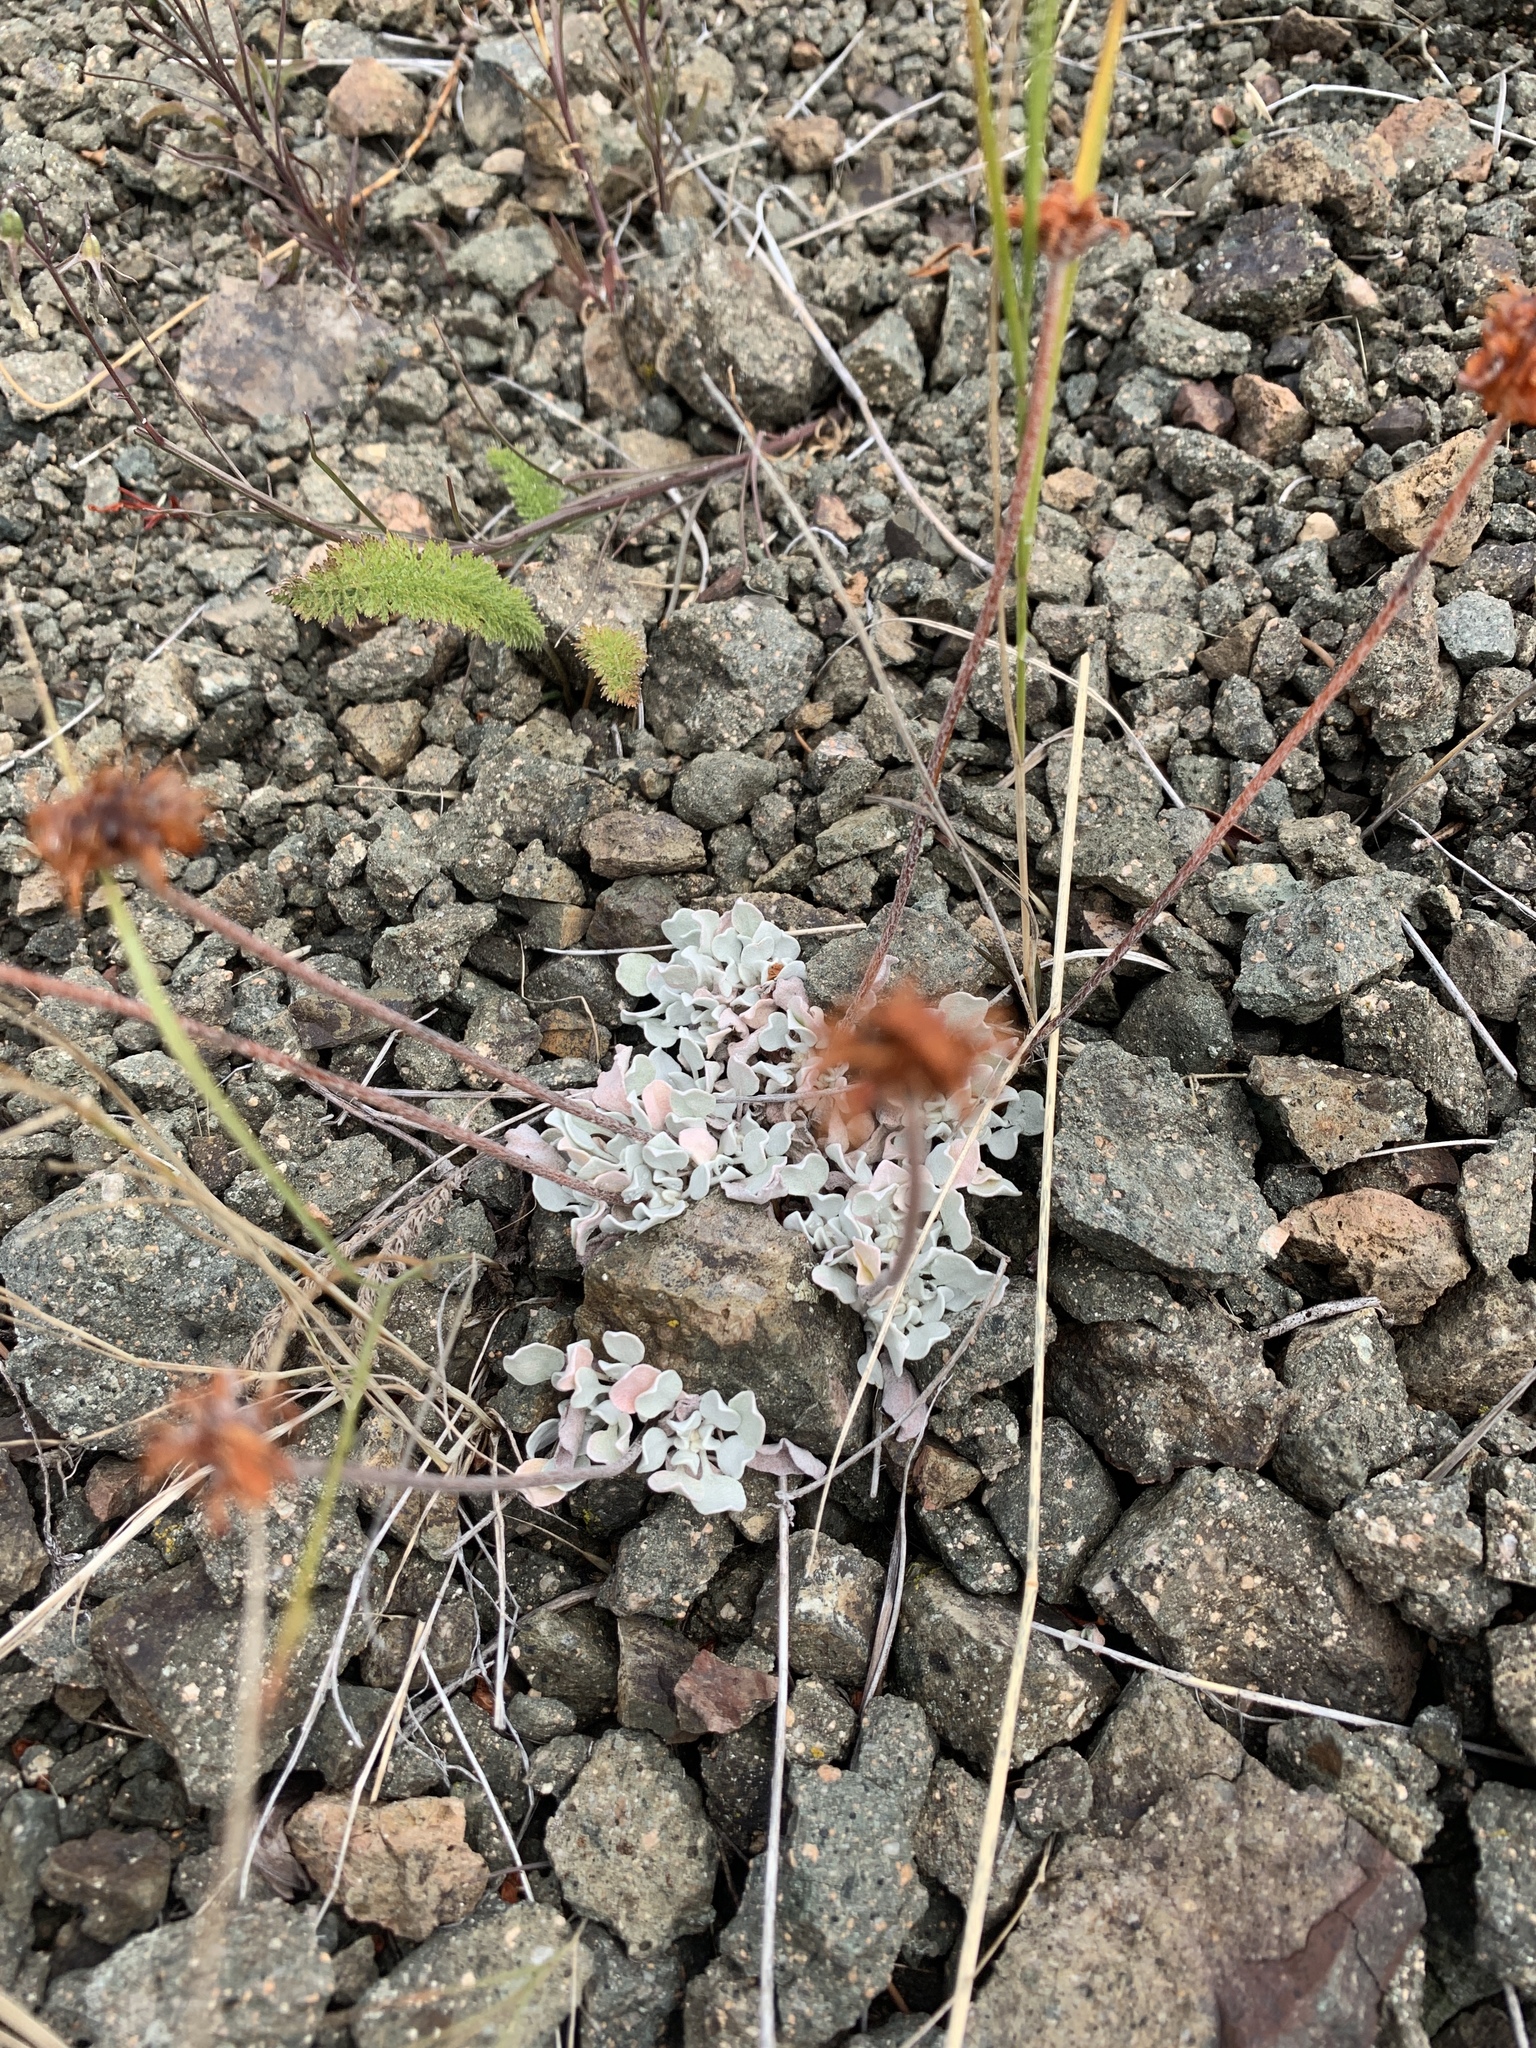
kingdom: Plantae
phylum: Tracheophyta
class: Magnoliopsida
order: Caryophyllales
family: Polygonaceae
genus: Eriogonum
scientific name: Eriogonum ovalifolium
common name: Cushion buckwheat
